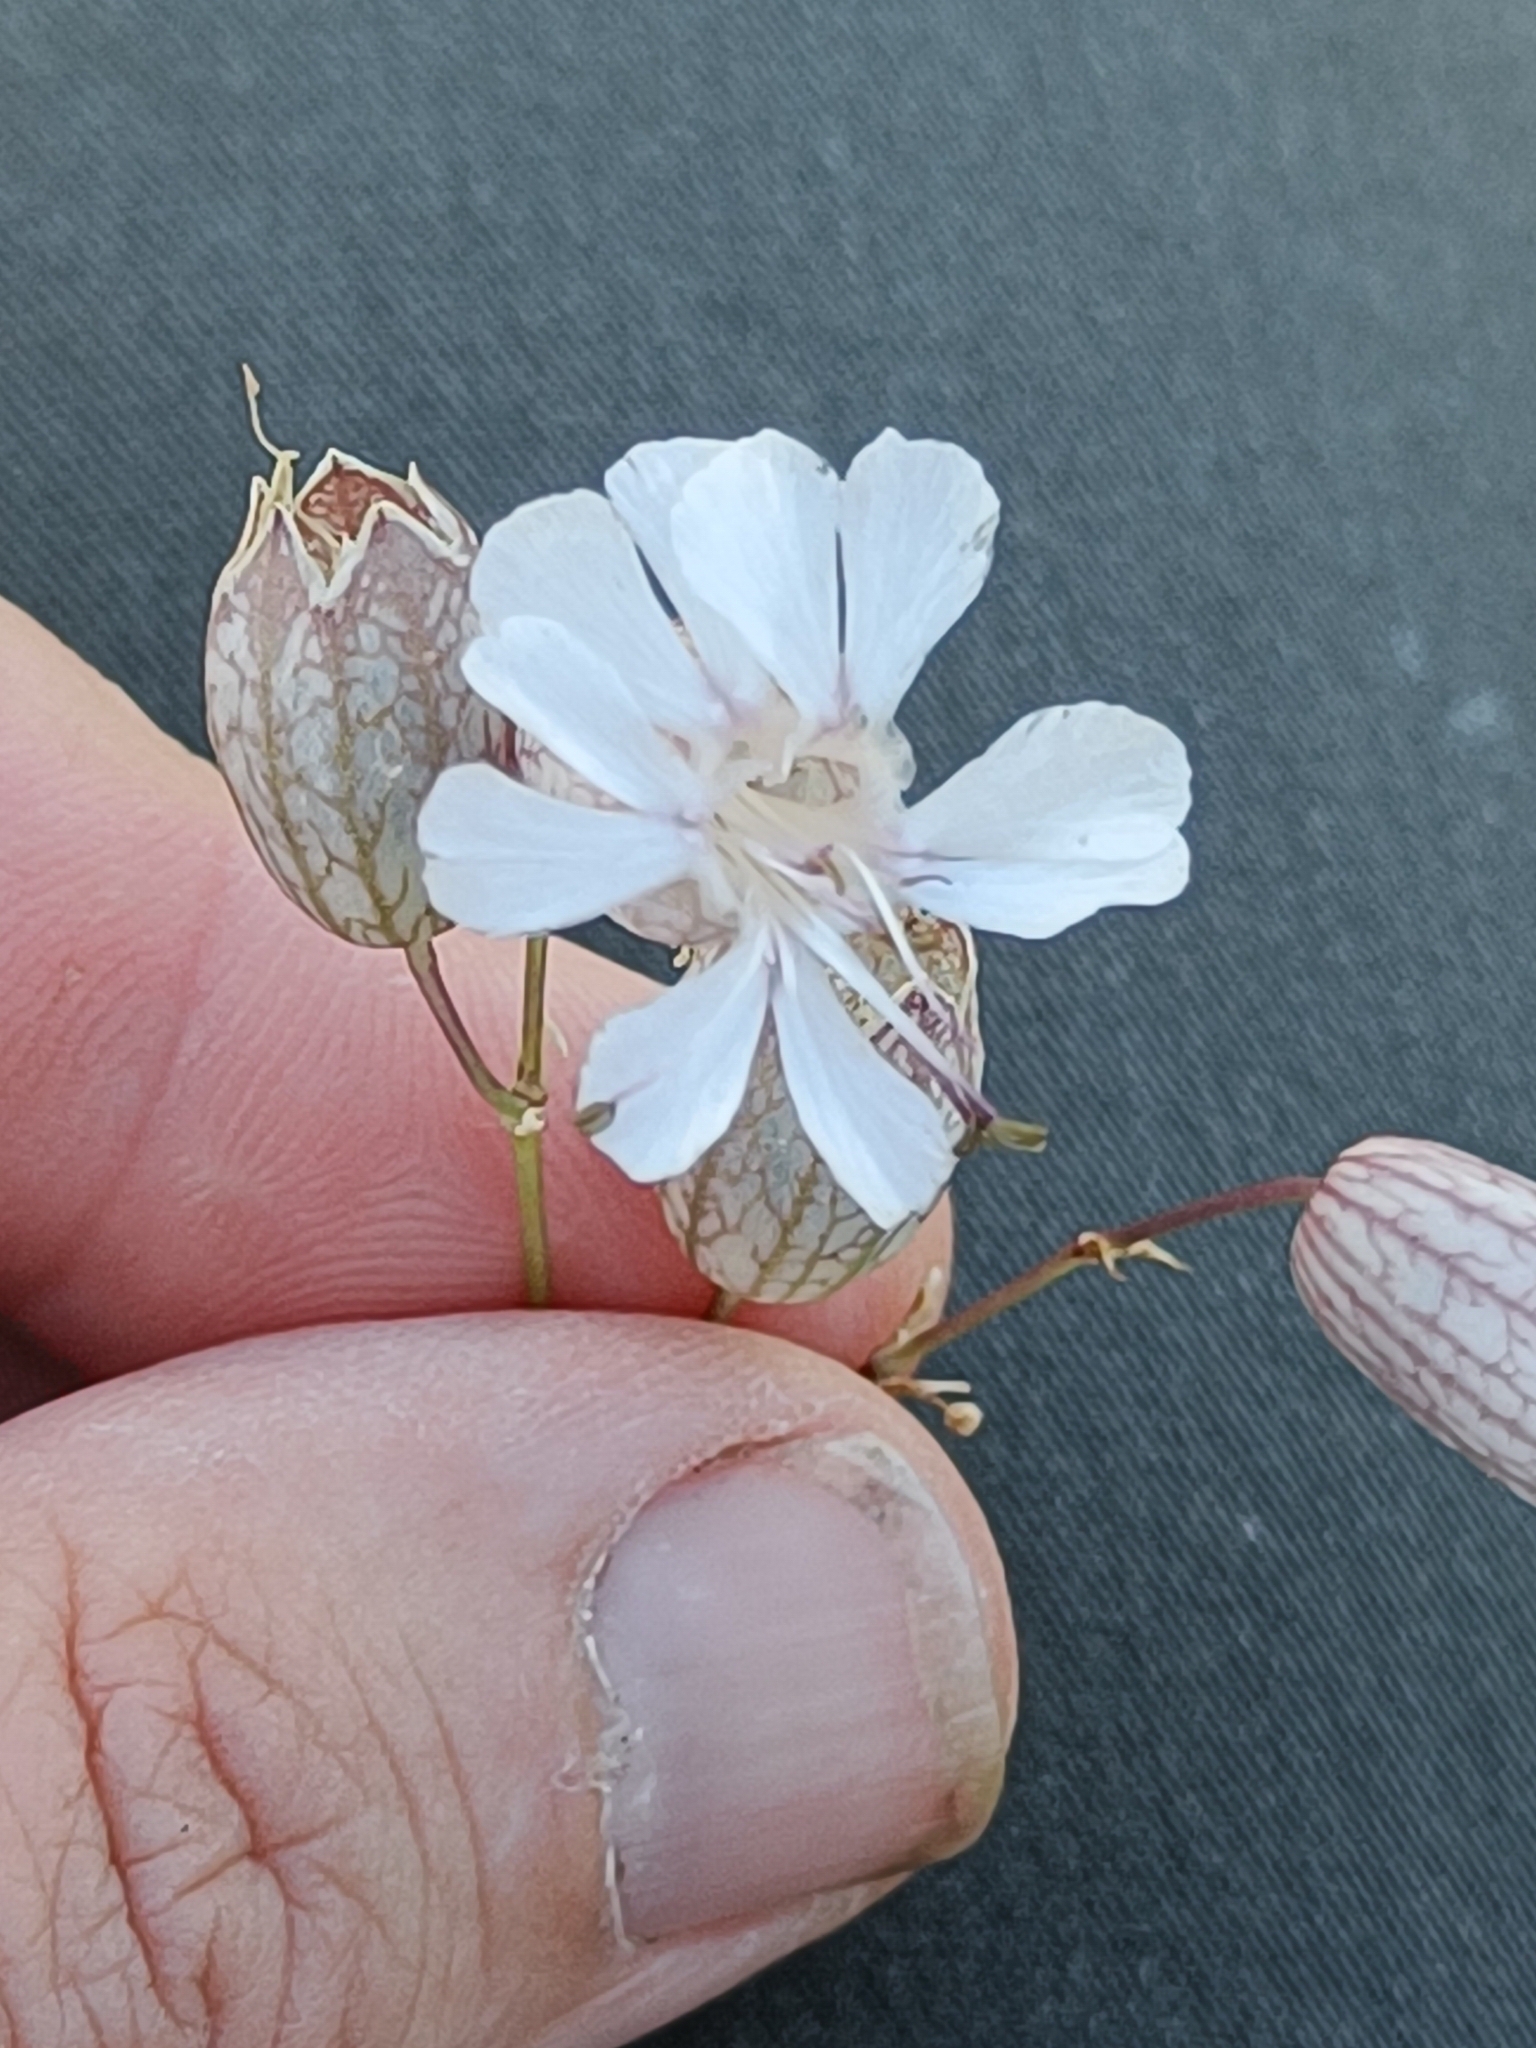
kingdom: Plantae
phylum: Tracheophyta
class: Magnoliopsida
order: Caryophyllales
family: Caryophyllaceae
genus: Silene
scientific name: Silene vulgaris
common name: Bladder campion
